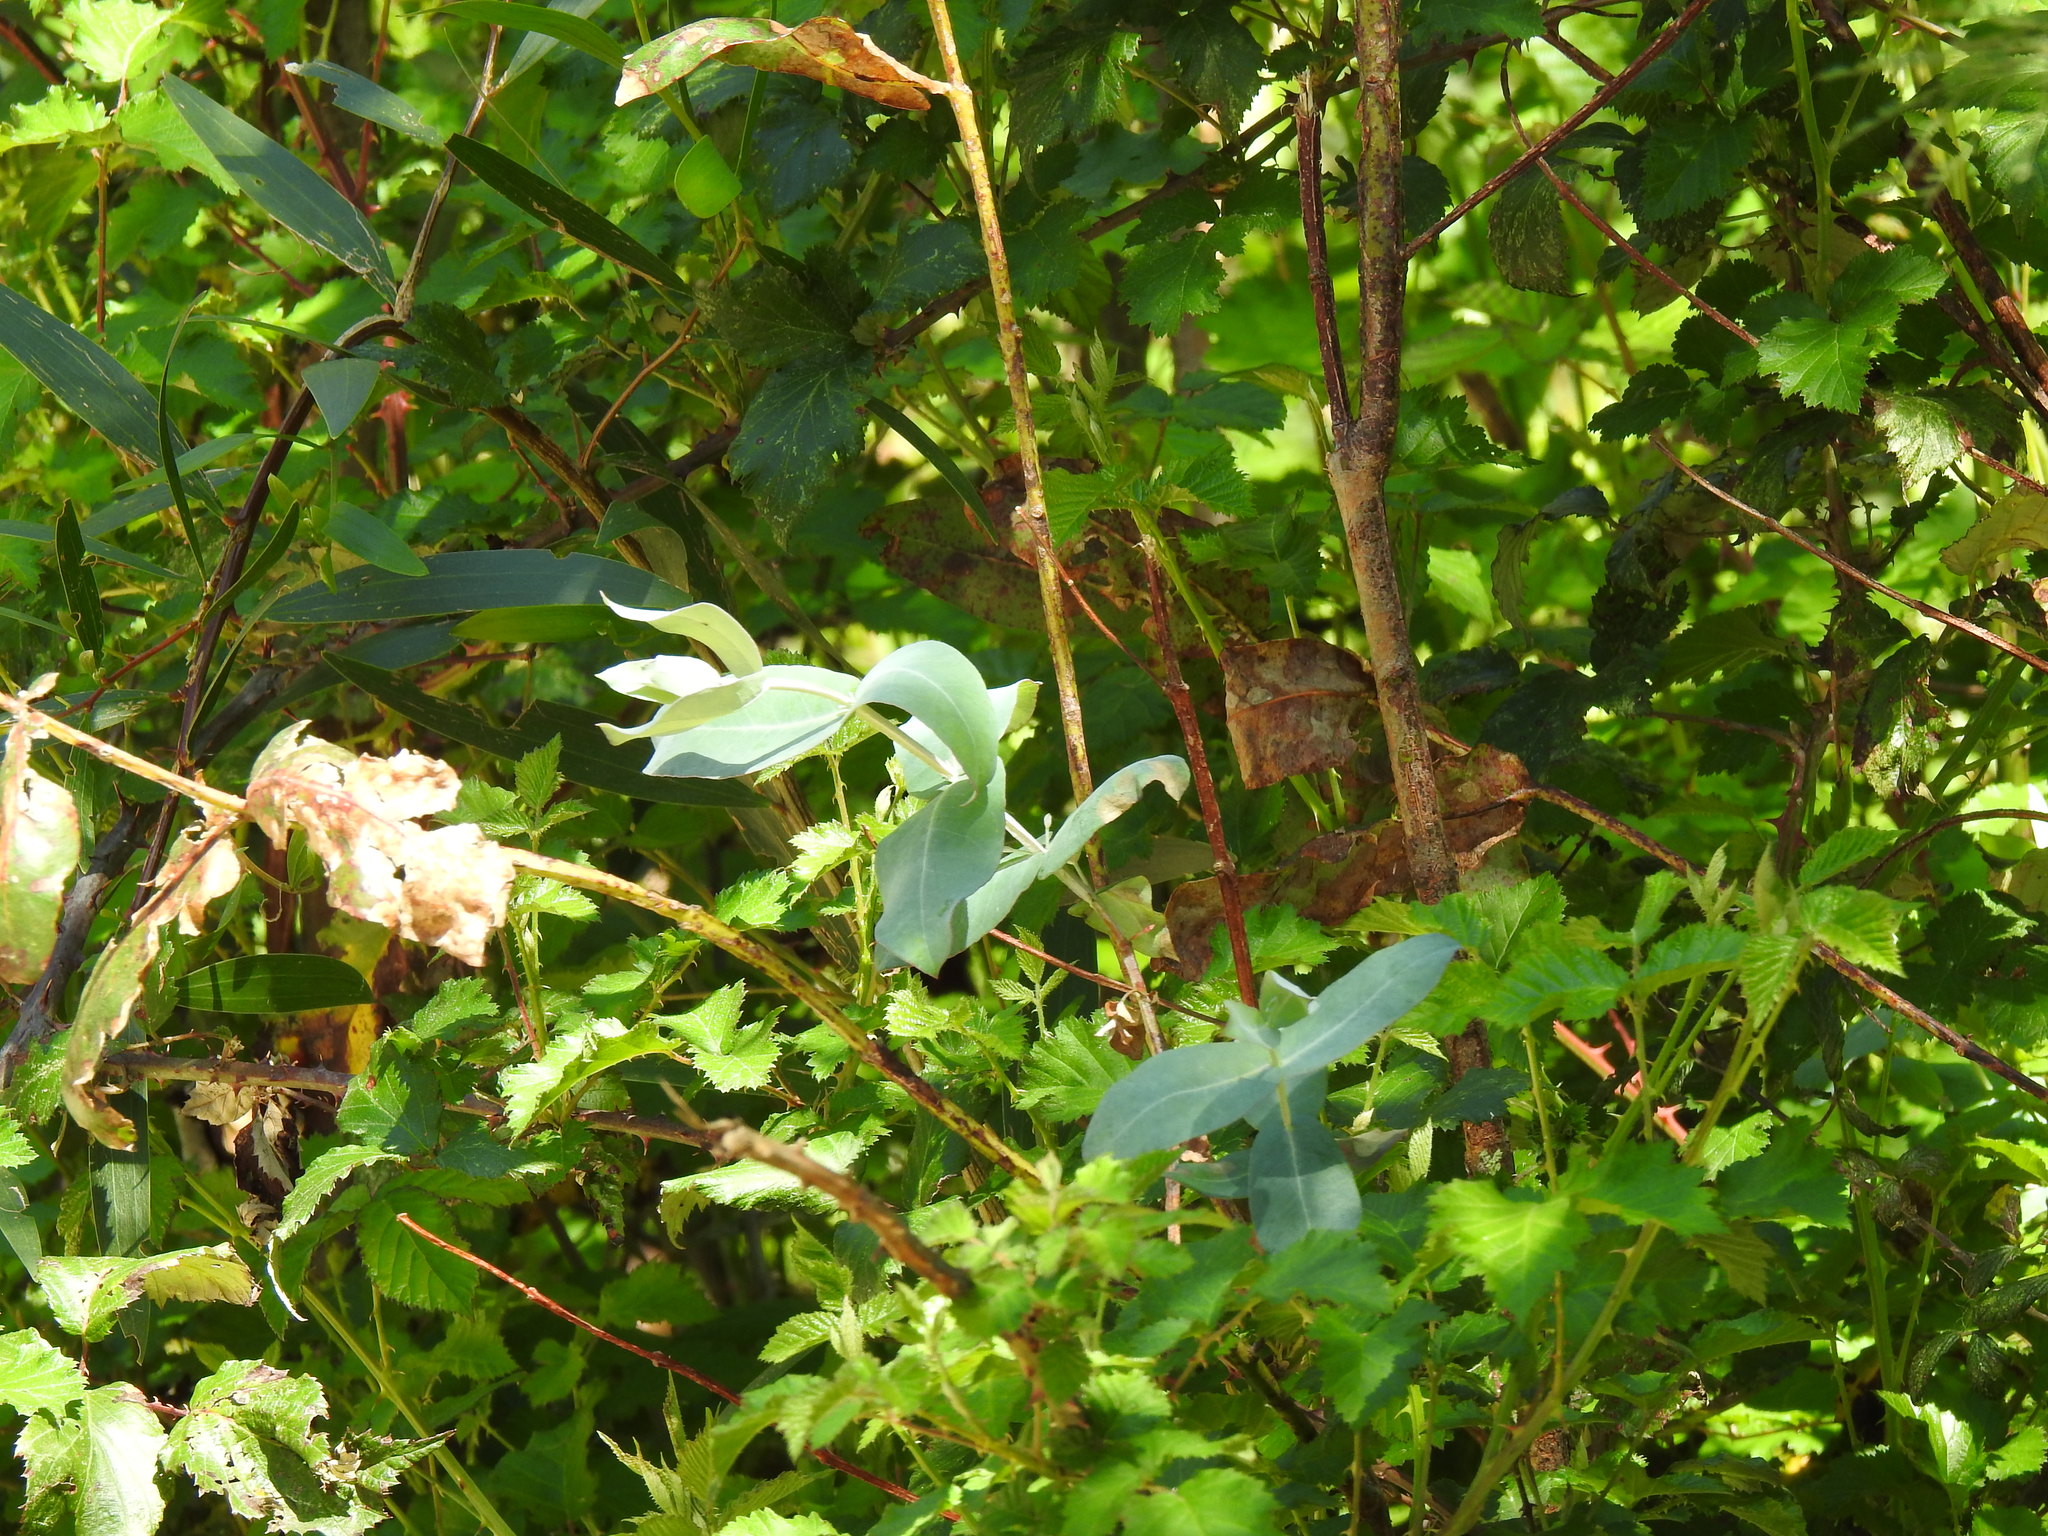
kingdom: Plantae
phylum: Tracheophyta
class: Magnoliopsida
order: Myrtales
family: Myrtaceae
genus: Eucalyptus
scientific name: Eucalyptus globulus
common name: Southern blue-gum
